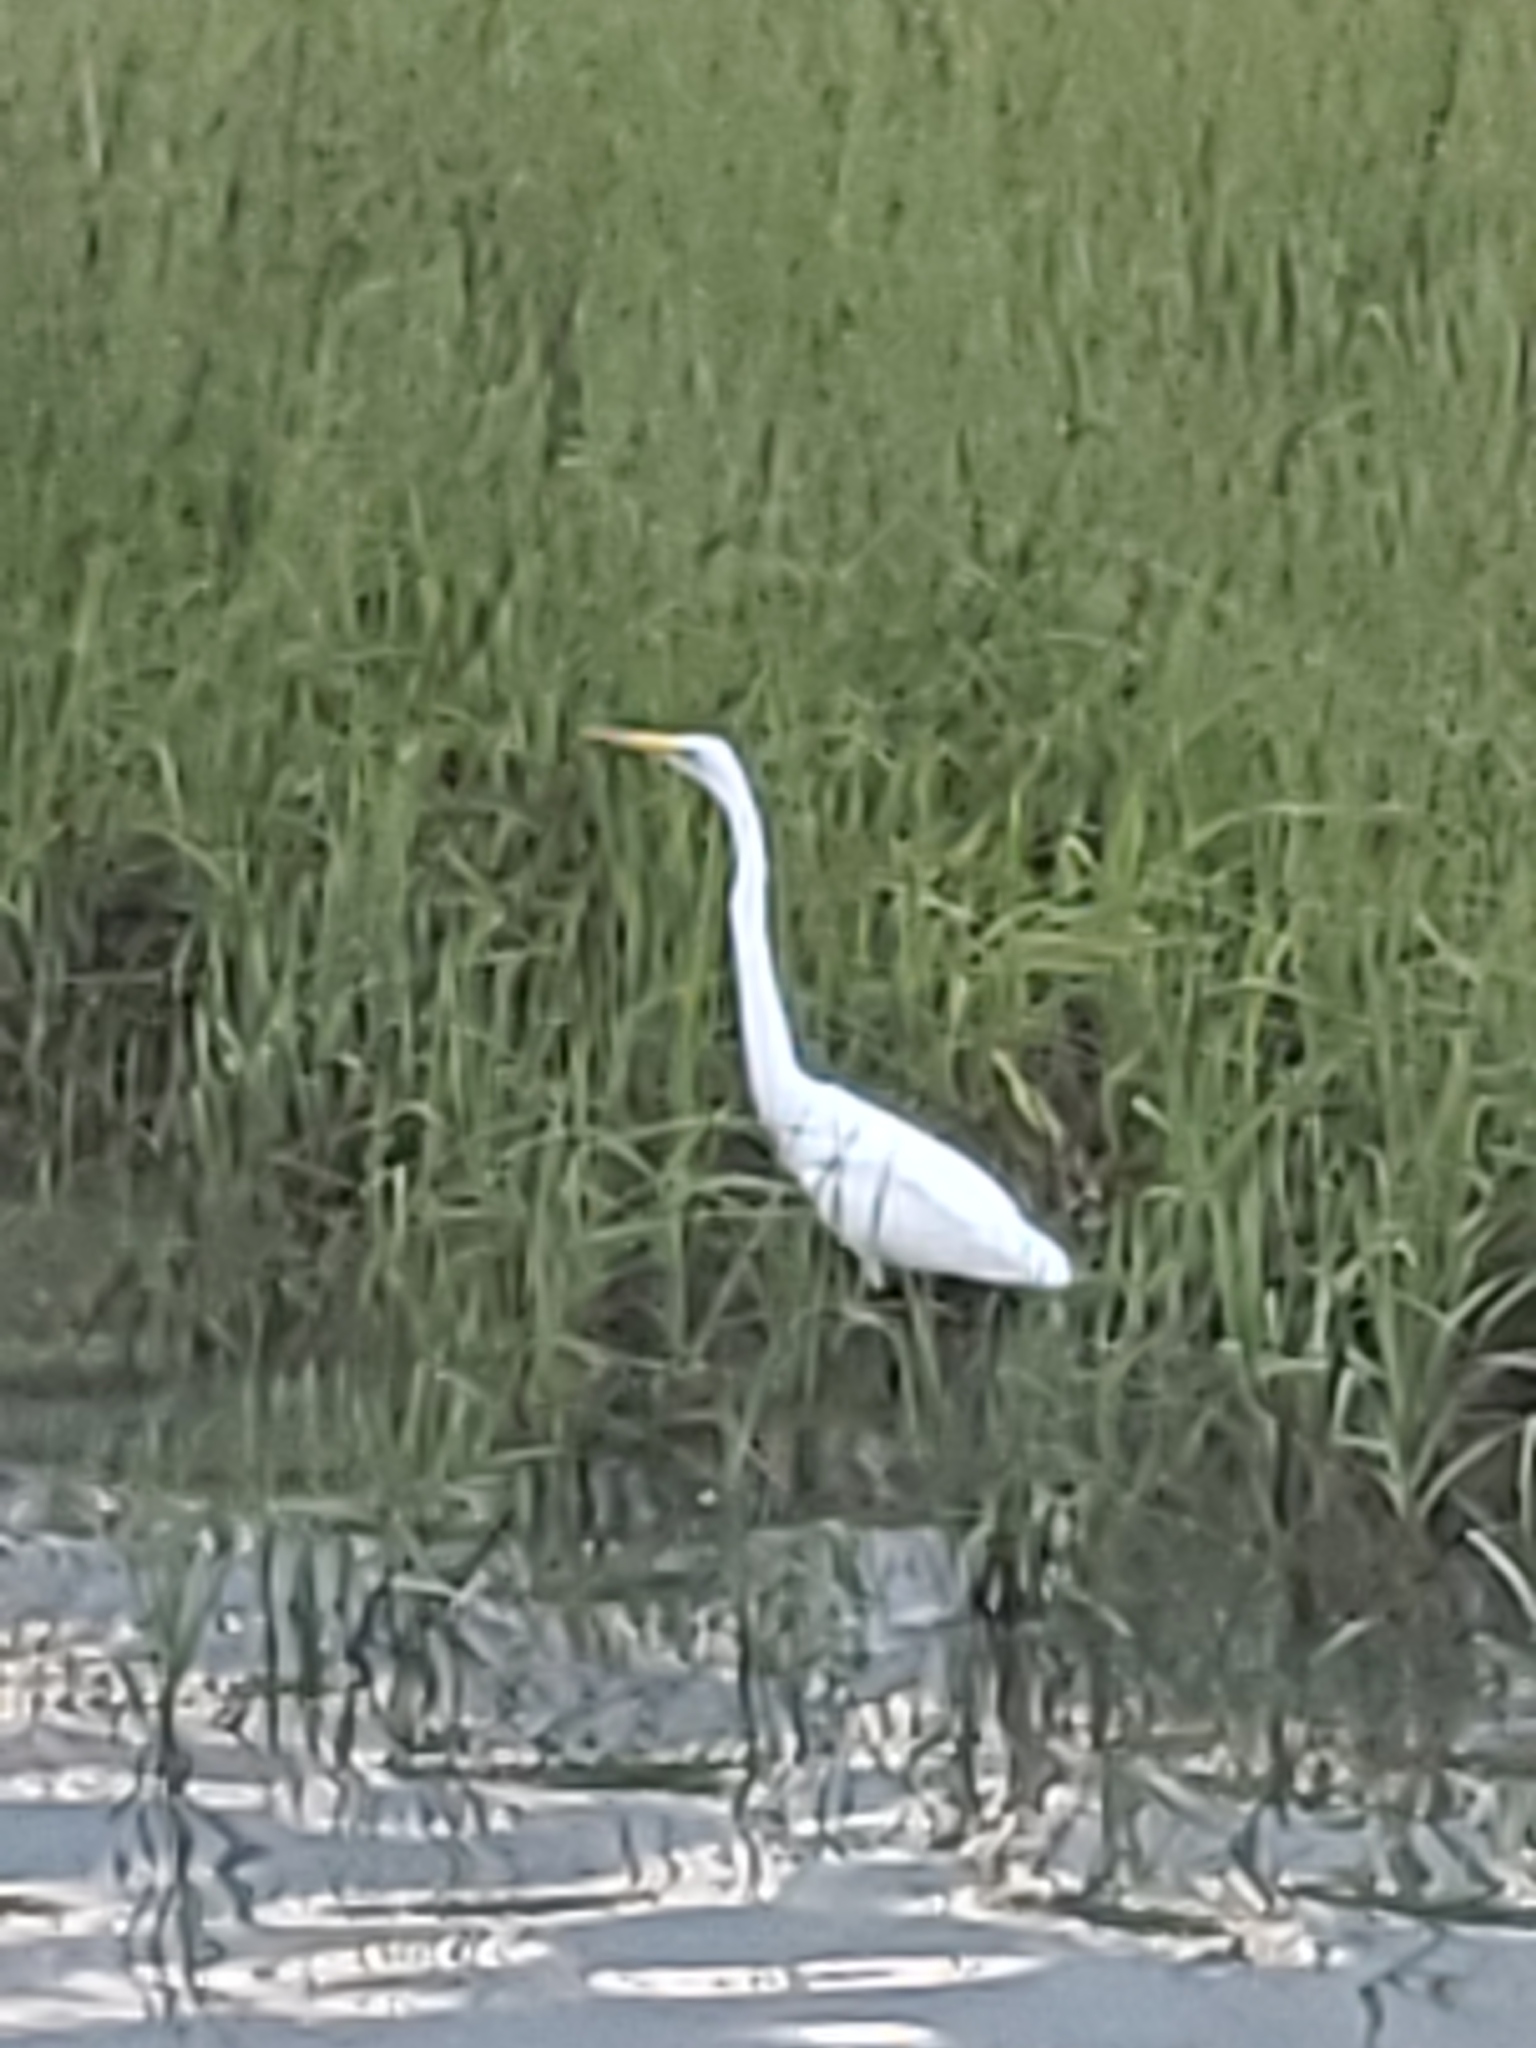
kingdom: Animalia
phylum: Chordata
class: Aves
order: Pelecaniformes
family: Ardeidae
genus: Ardea
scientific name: Ardea alba
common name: Great egret
